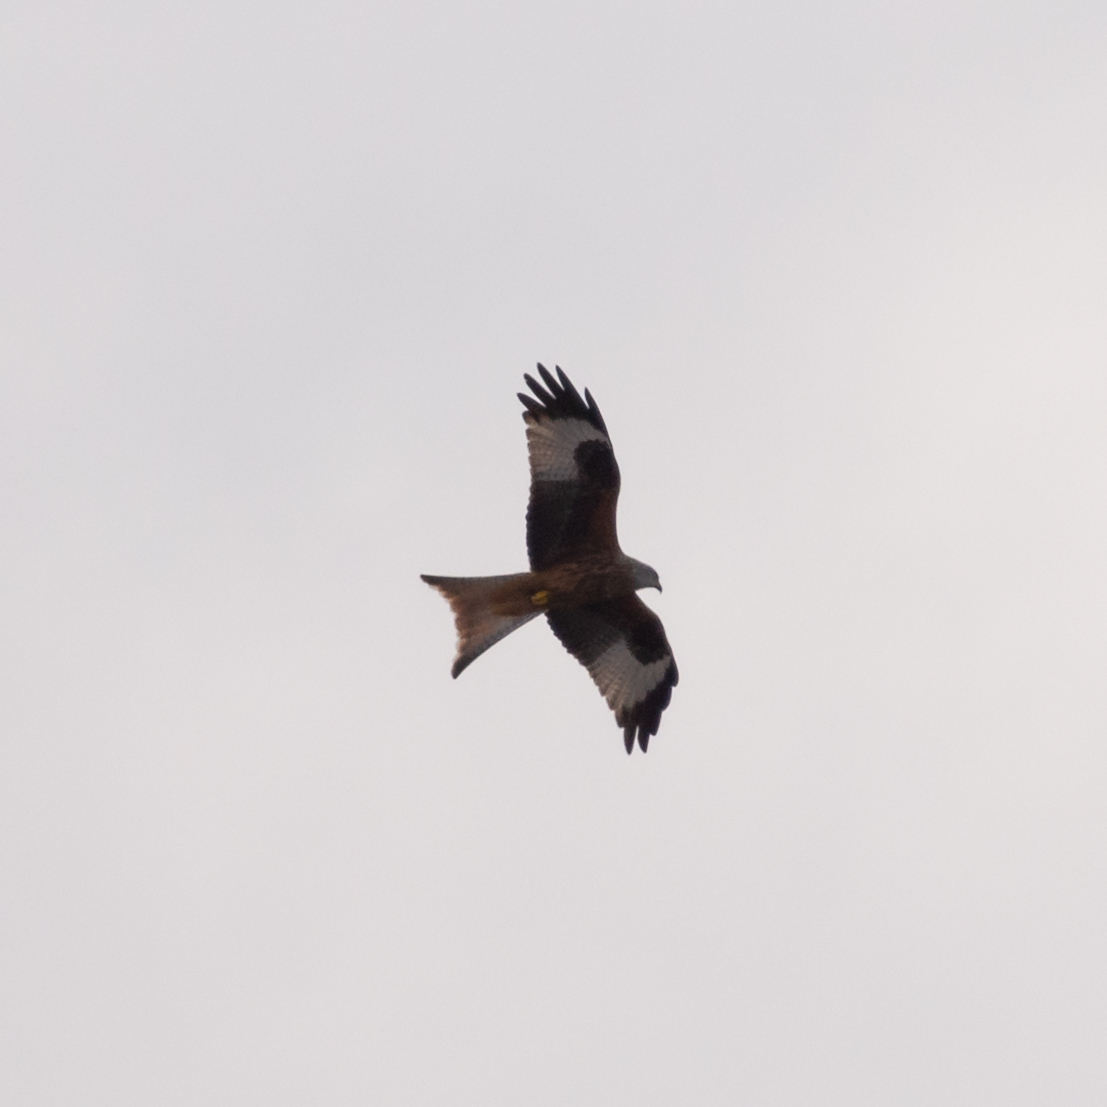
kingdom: Animalia
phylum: Chordata
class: Aves
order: Accipitriformes
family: Accipitridae
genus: Milvus
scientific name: Milvus milvus
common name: Red kite
